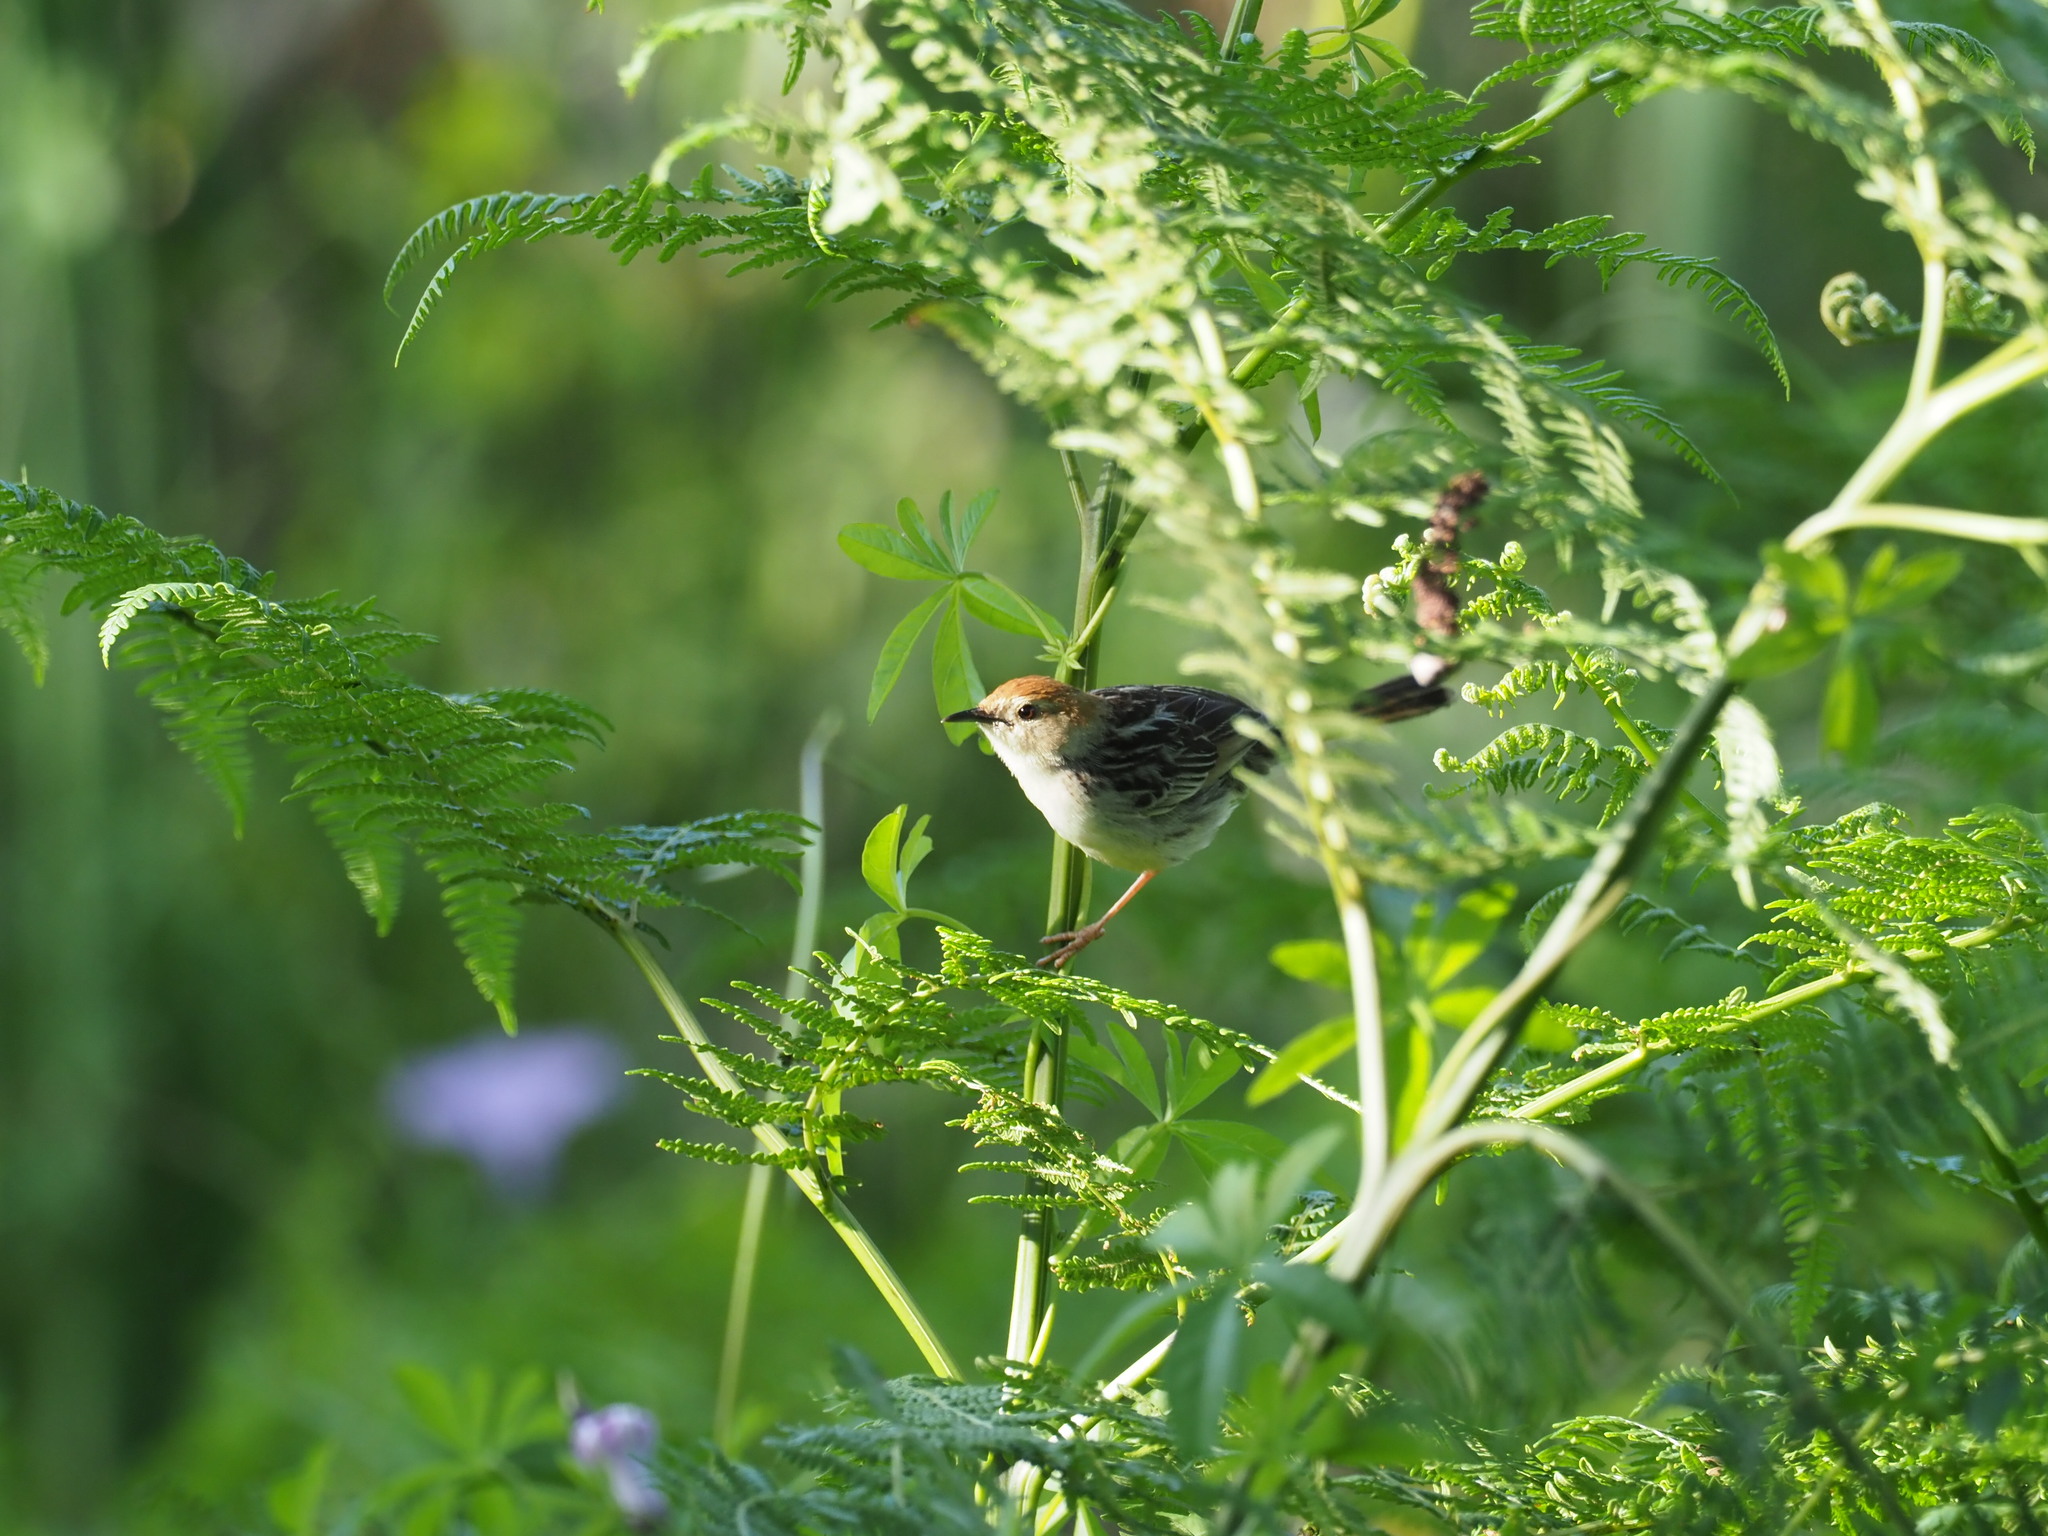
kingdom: Animalia
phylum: Chordata
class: Aves
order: Passeriformes
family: Cisticolidae
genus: Cisticola
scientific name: Cisticola tinniens
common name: Levaillant's cisticola
